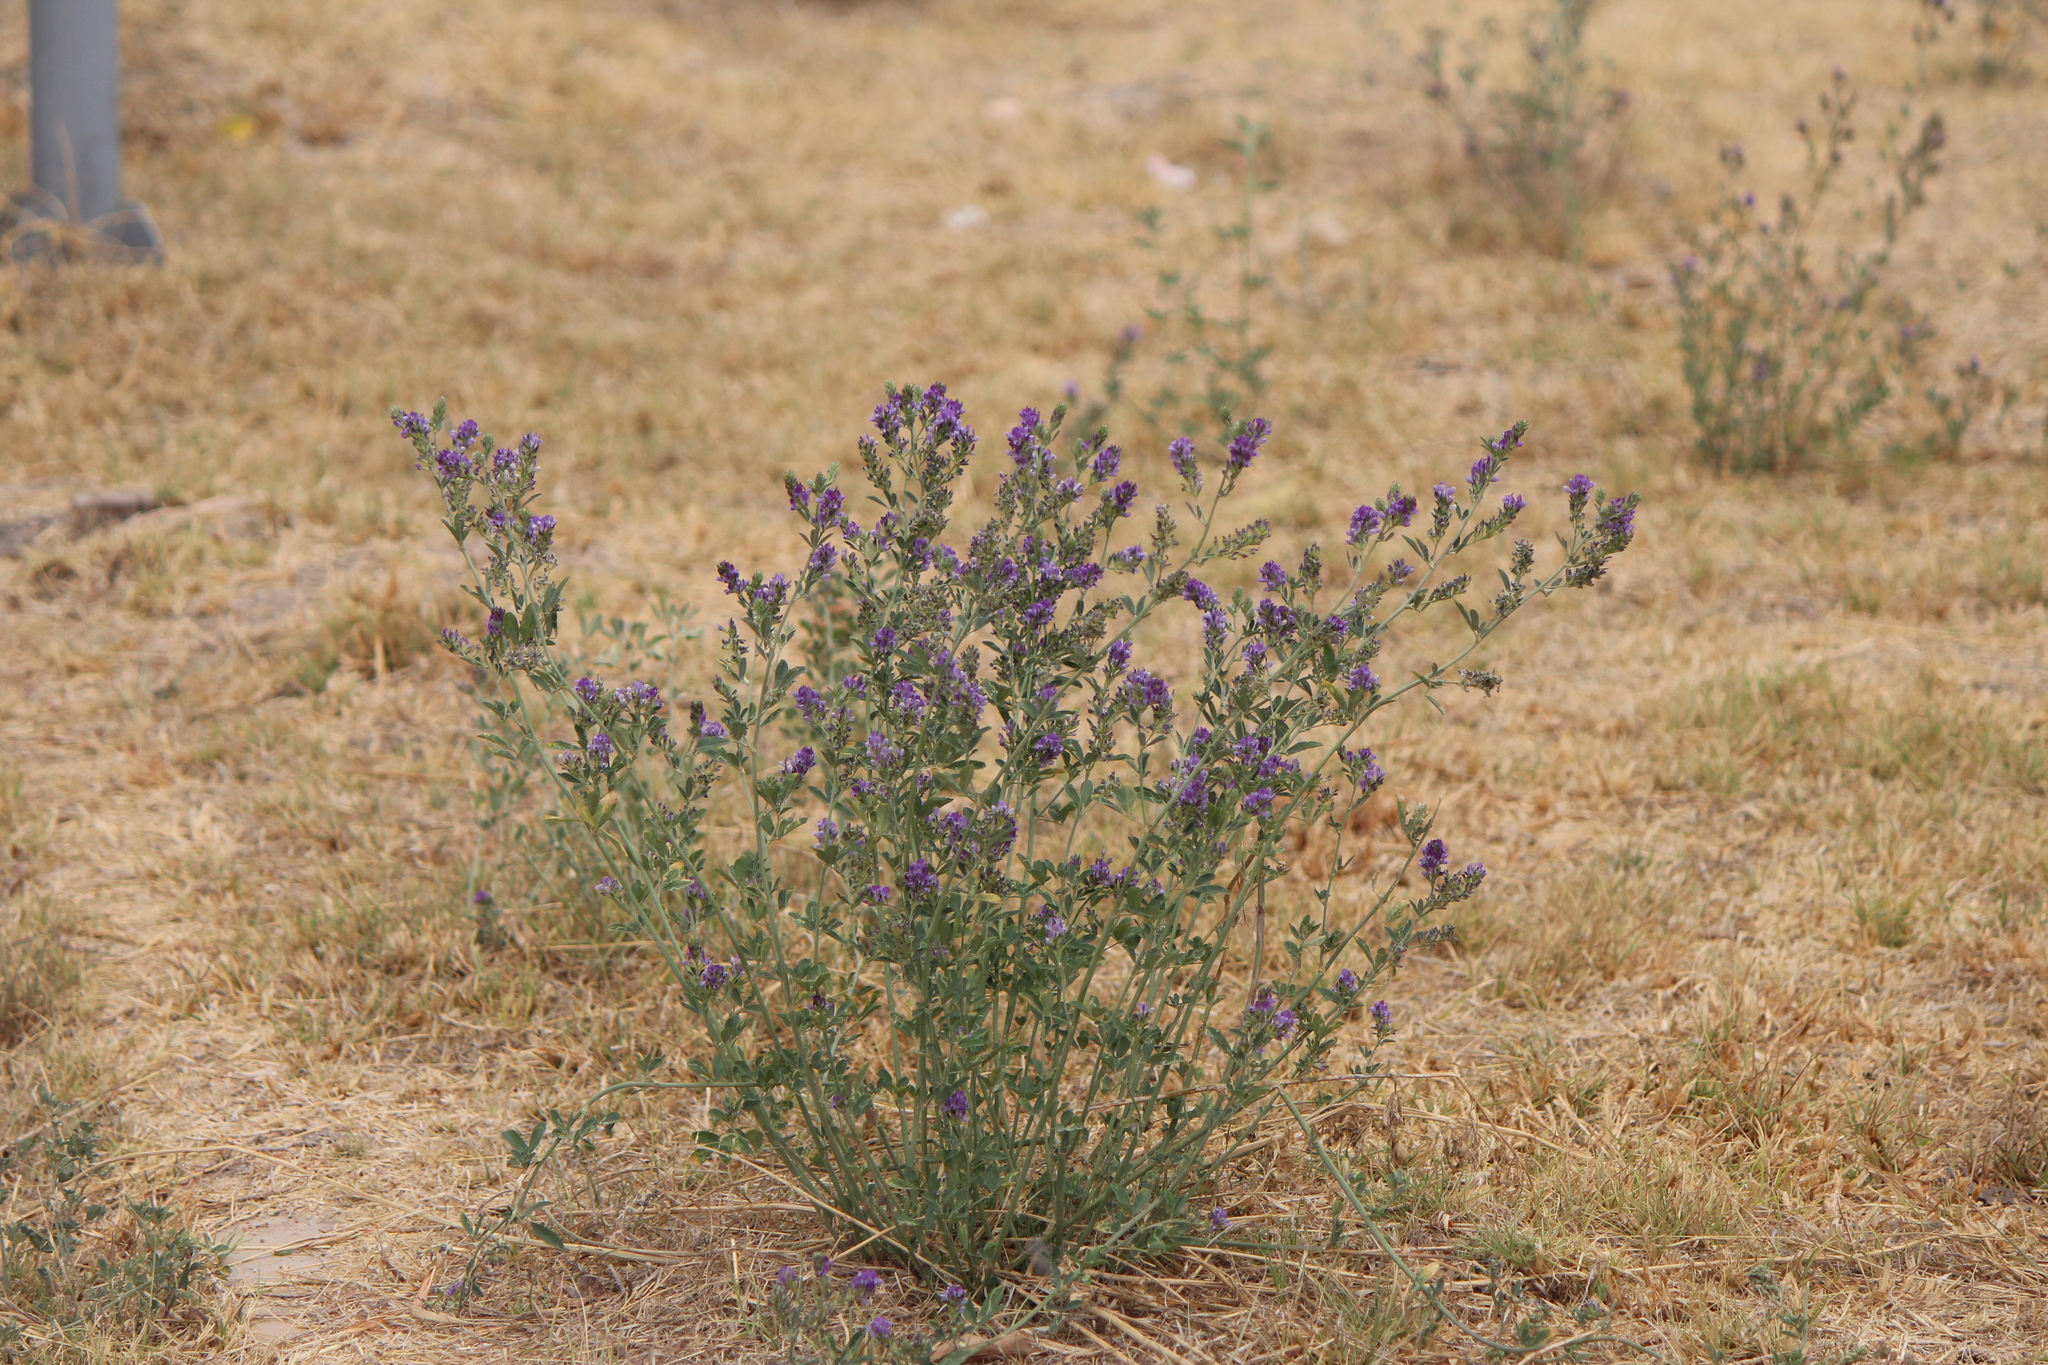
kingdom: Plantae
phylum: Tracheophyta
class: Magnoliopsida
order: Fabales
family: Fabaceae
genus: Medicago
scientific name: Medicago sativa
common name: Alfalfa
